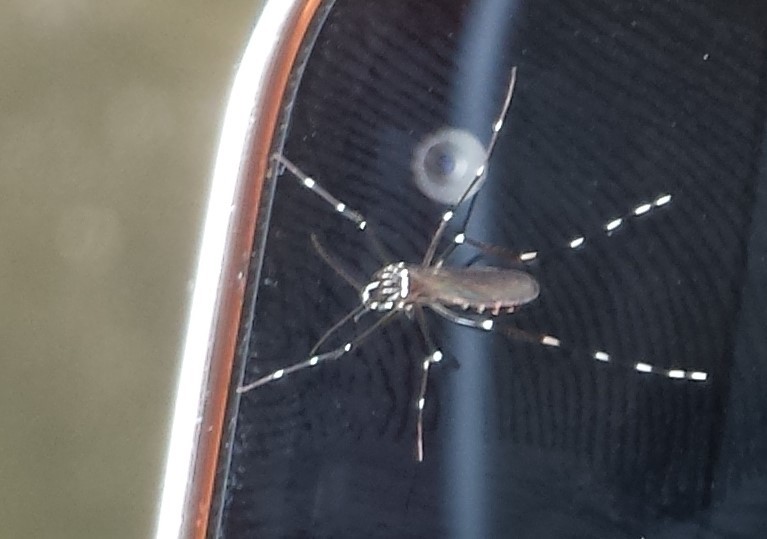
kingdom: Animalia
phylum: Arthropoda
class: Insecta
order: Diptera
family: Culicidae
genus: Aedes
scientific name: Aedes albopictus
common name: Tiger mosquito
